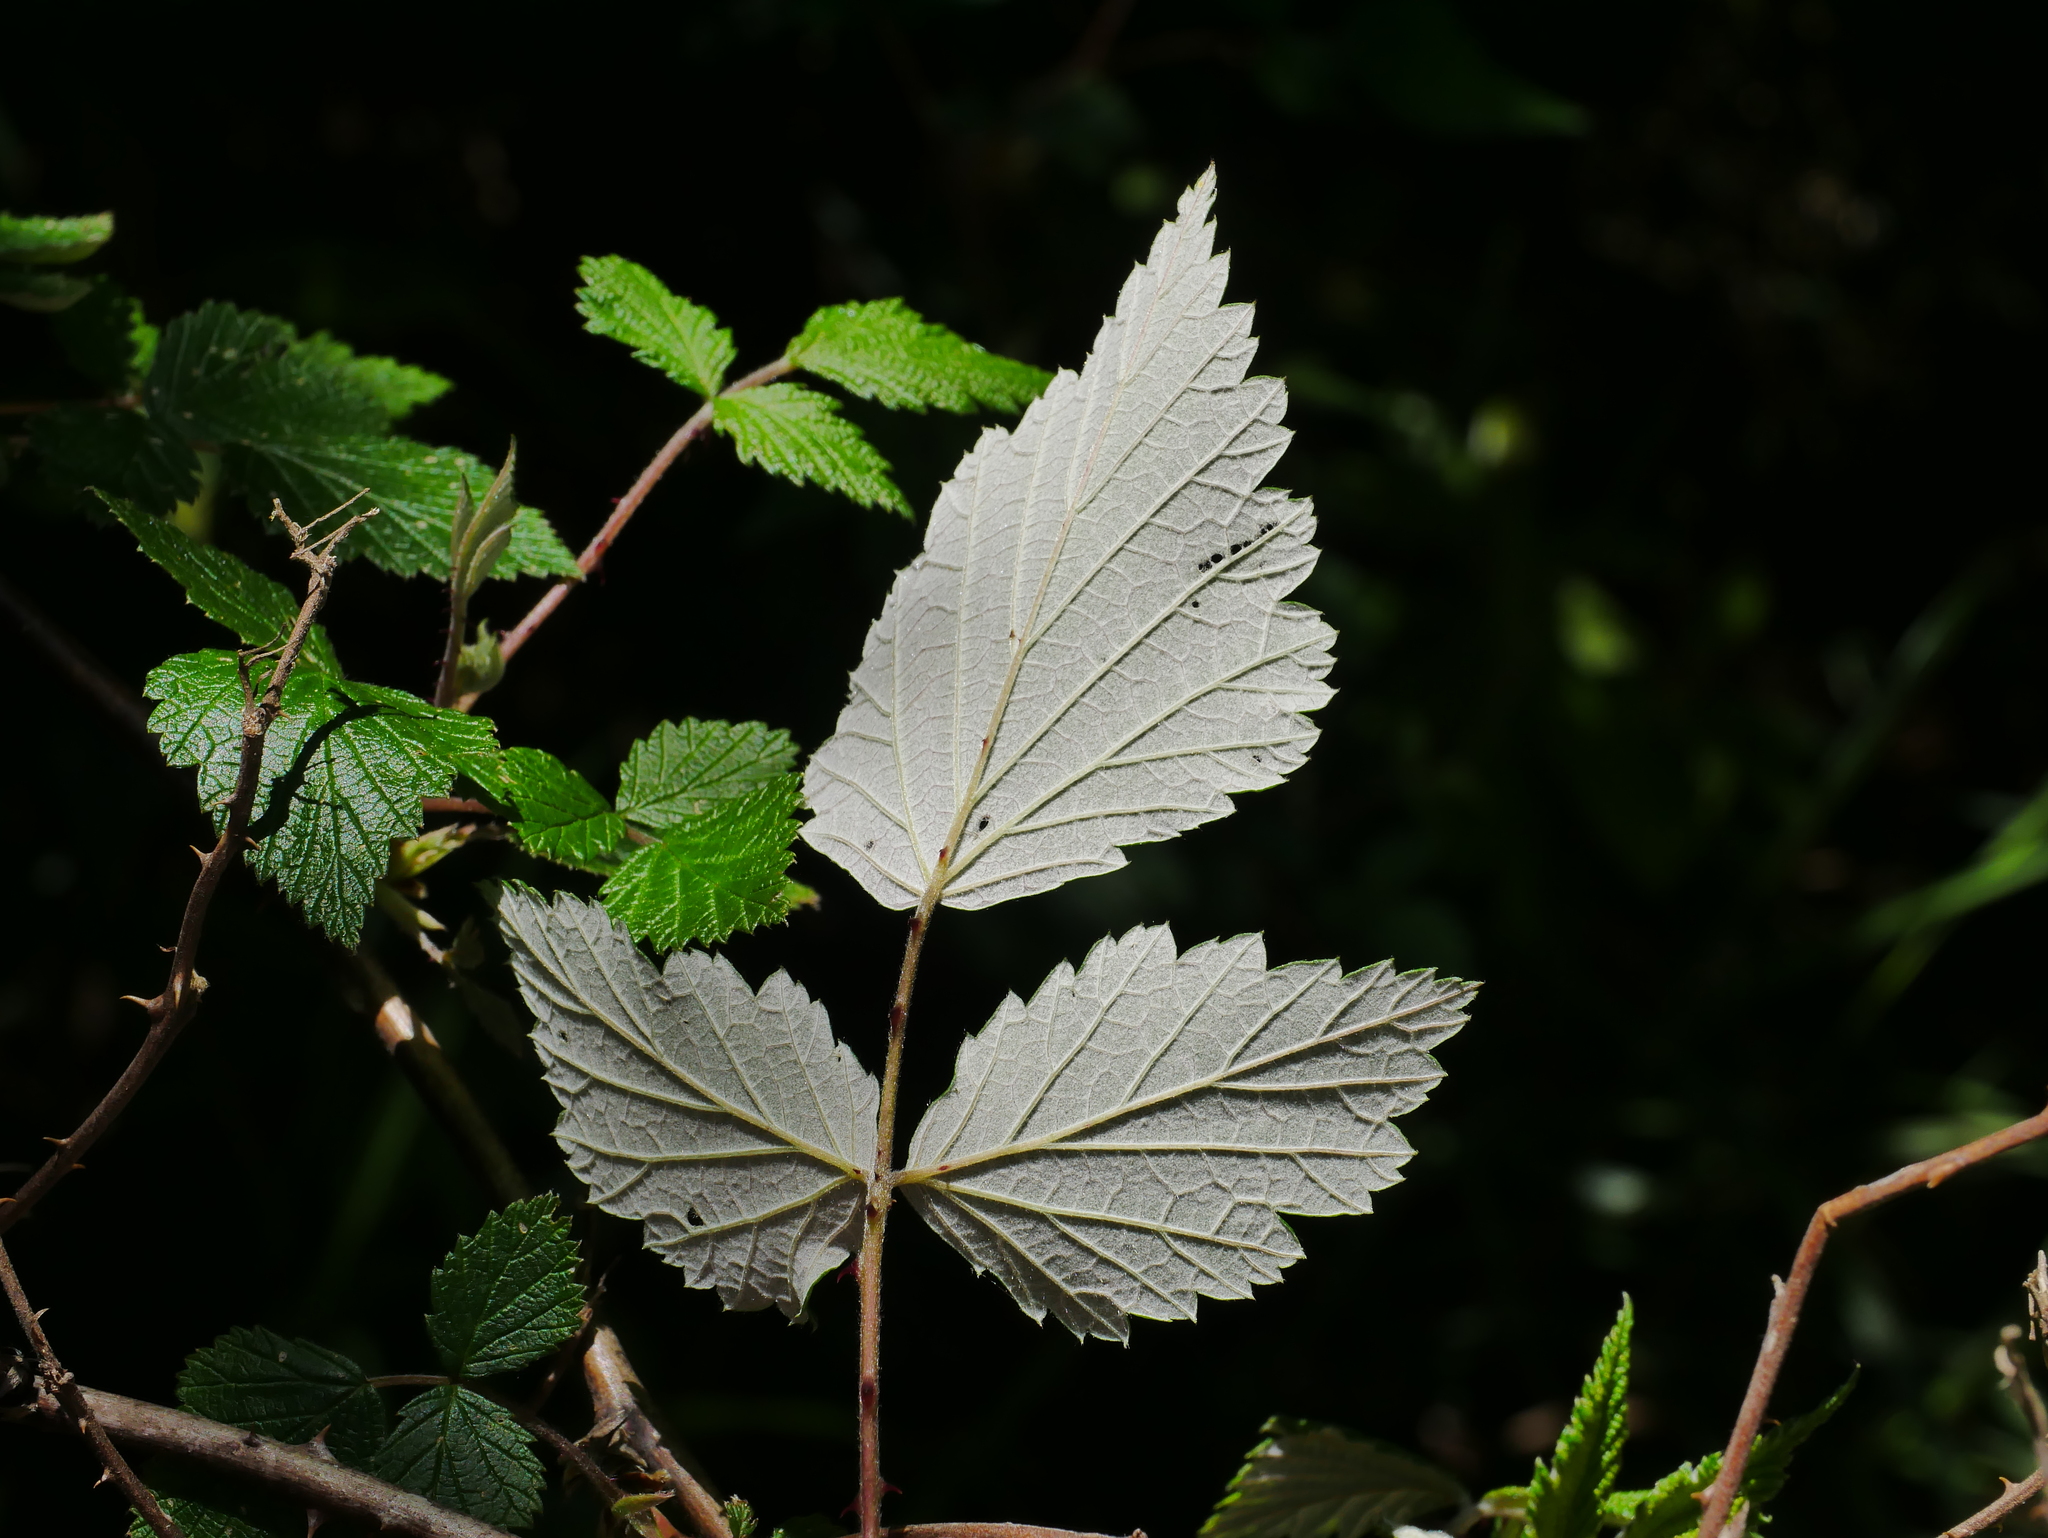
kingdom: Plantae
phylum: Tracheophyta
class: Magnoliopsida
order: Rosales
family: Rosaceae
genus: Rubus
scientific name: Rubus mesogaeus
